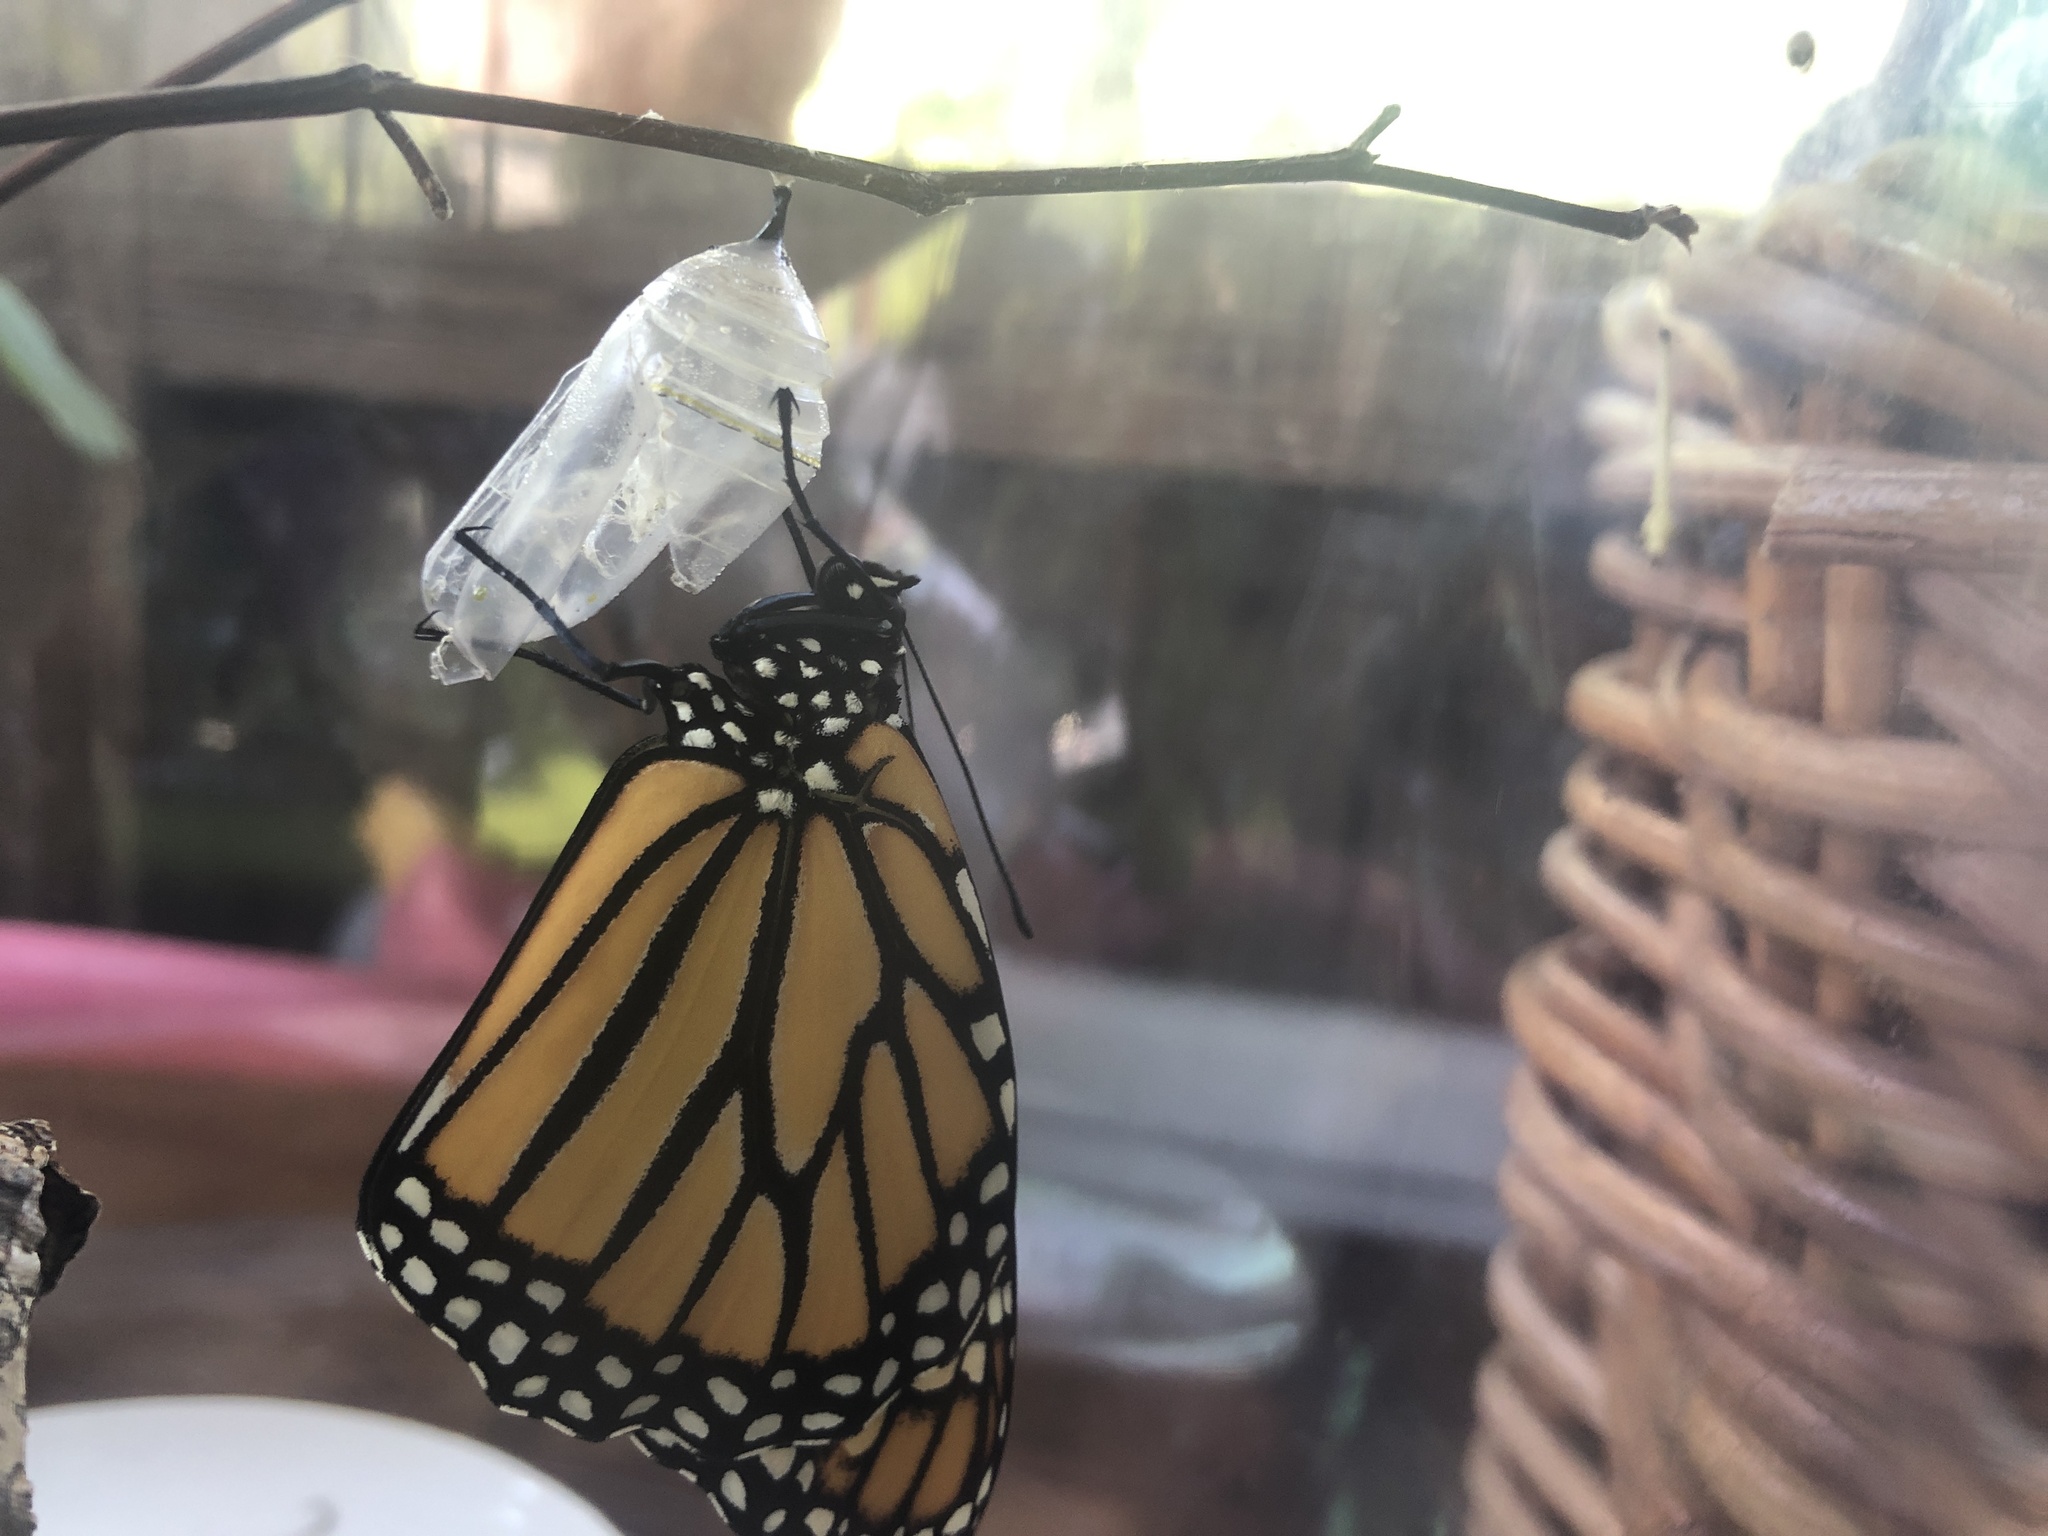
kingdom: Animalia
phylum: Arthropoda
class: Insecta
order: Lepidoptera
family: Nymphalidae
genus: Danaus
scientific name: Danaus plexippus
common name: Monarch
